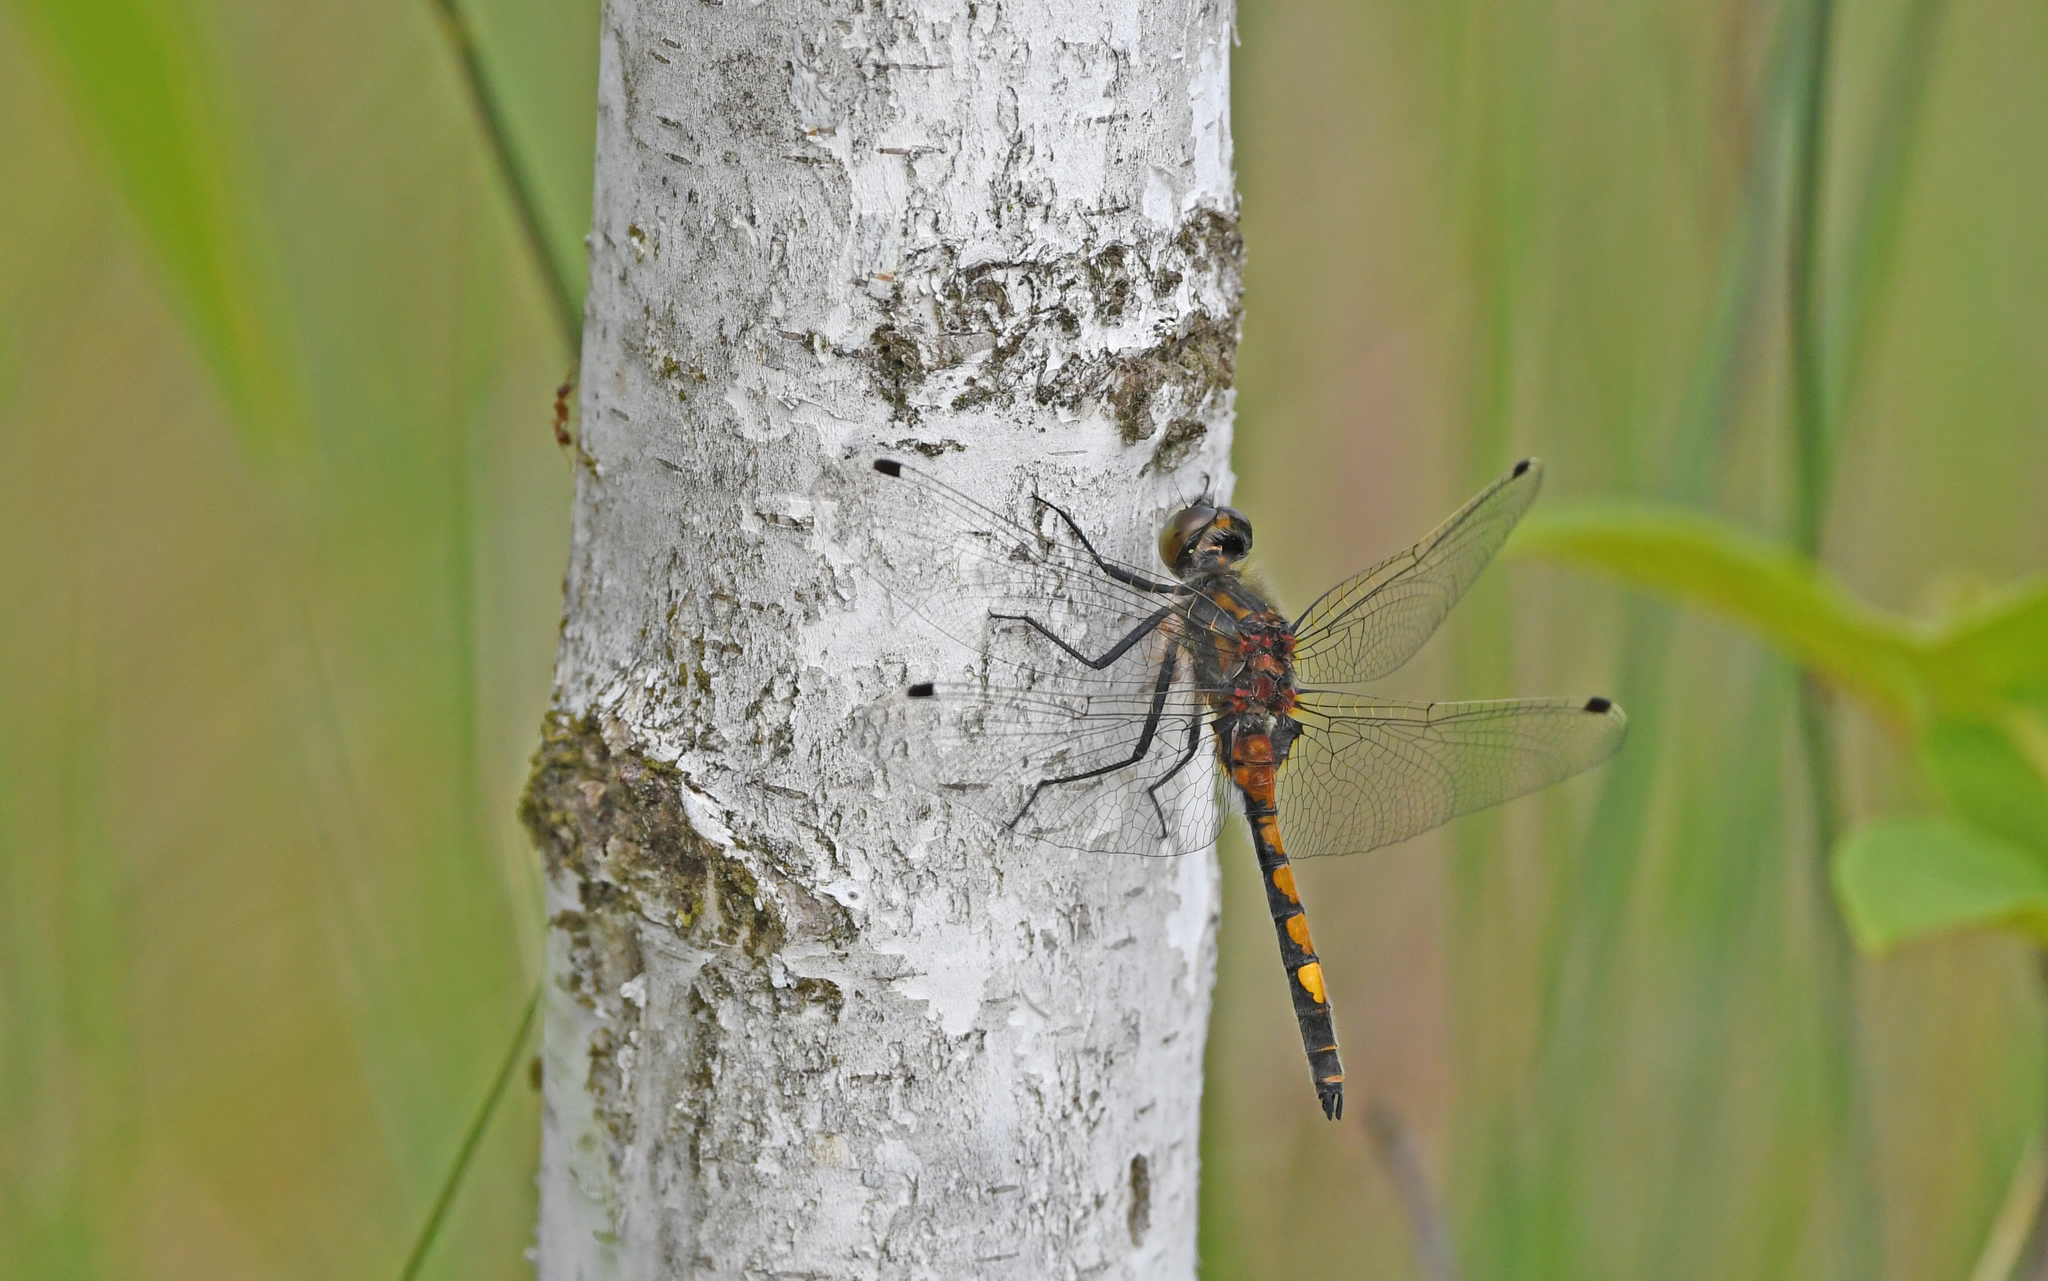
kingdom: Animalia
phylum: Arthropoda
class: Insecta
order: Odonata
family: Libellulidae
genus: Leucorrhinia
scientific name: Leucorrhinia pectoralis
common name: Yellow-spotted whiteface
